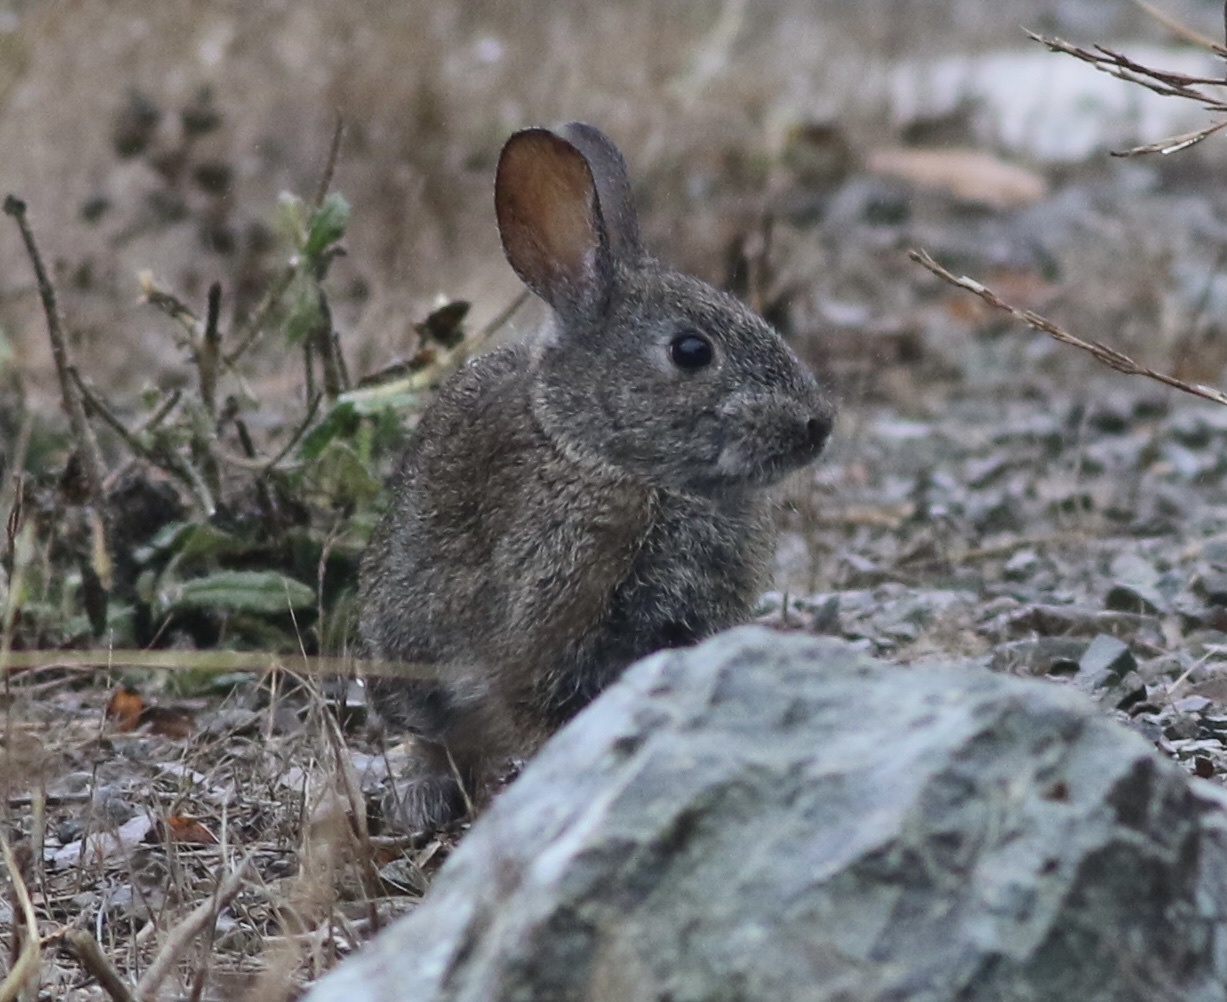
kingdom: Animalia
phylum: Chordata
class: Mammalia
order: Lagomorpha
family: Leporidae
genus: Sylvilagus
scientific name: Sylvilagus bachmani
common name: Brush rabbit
